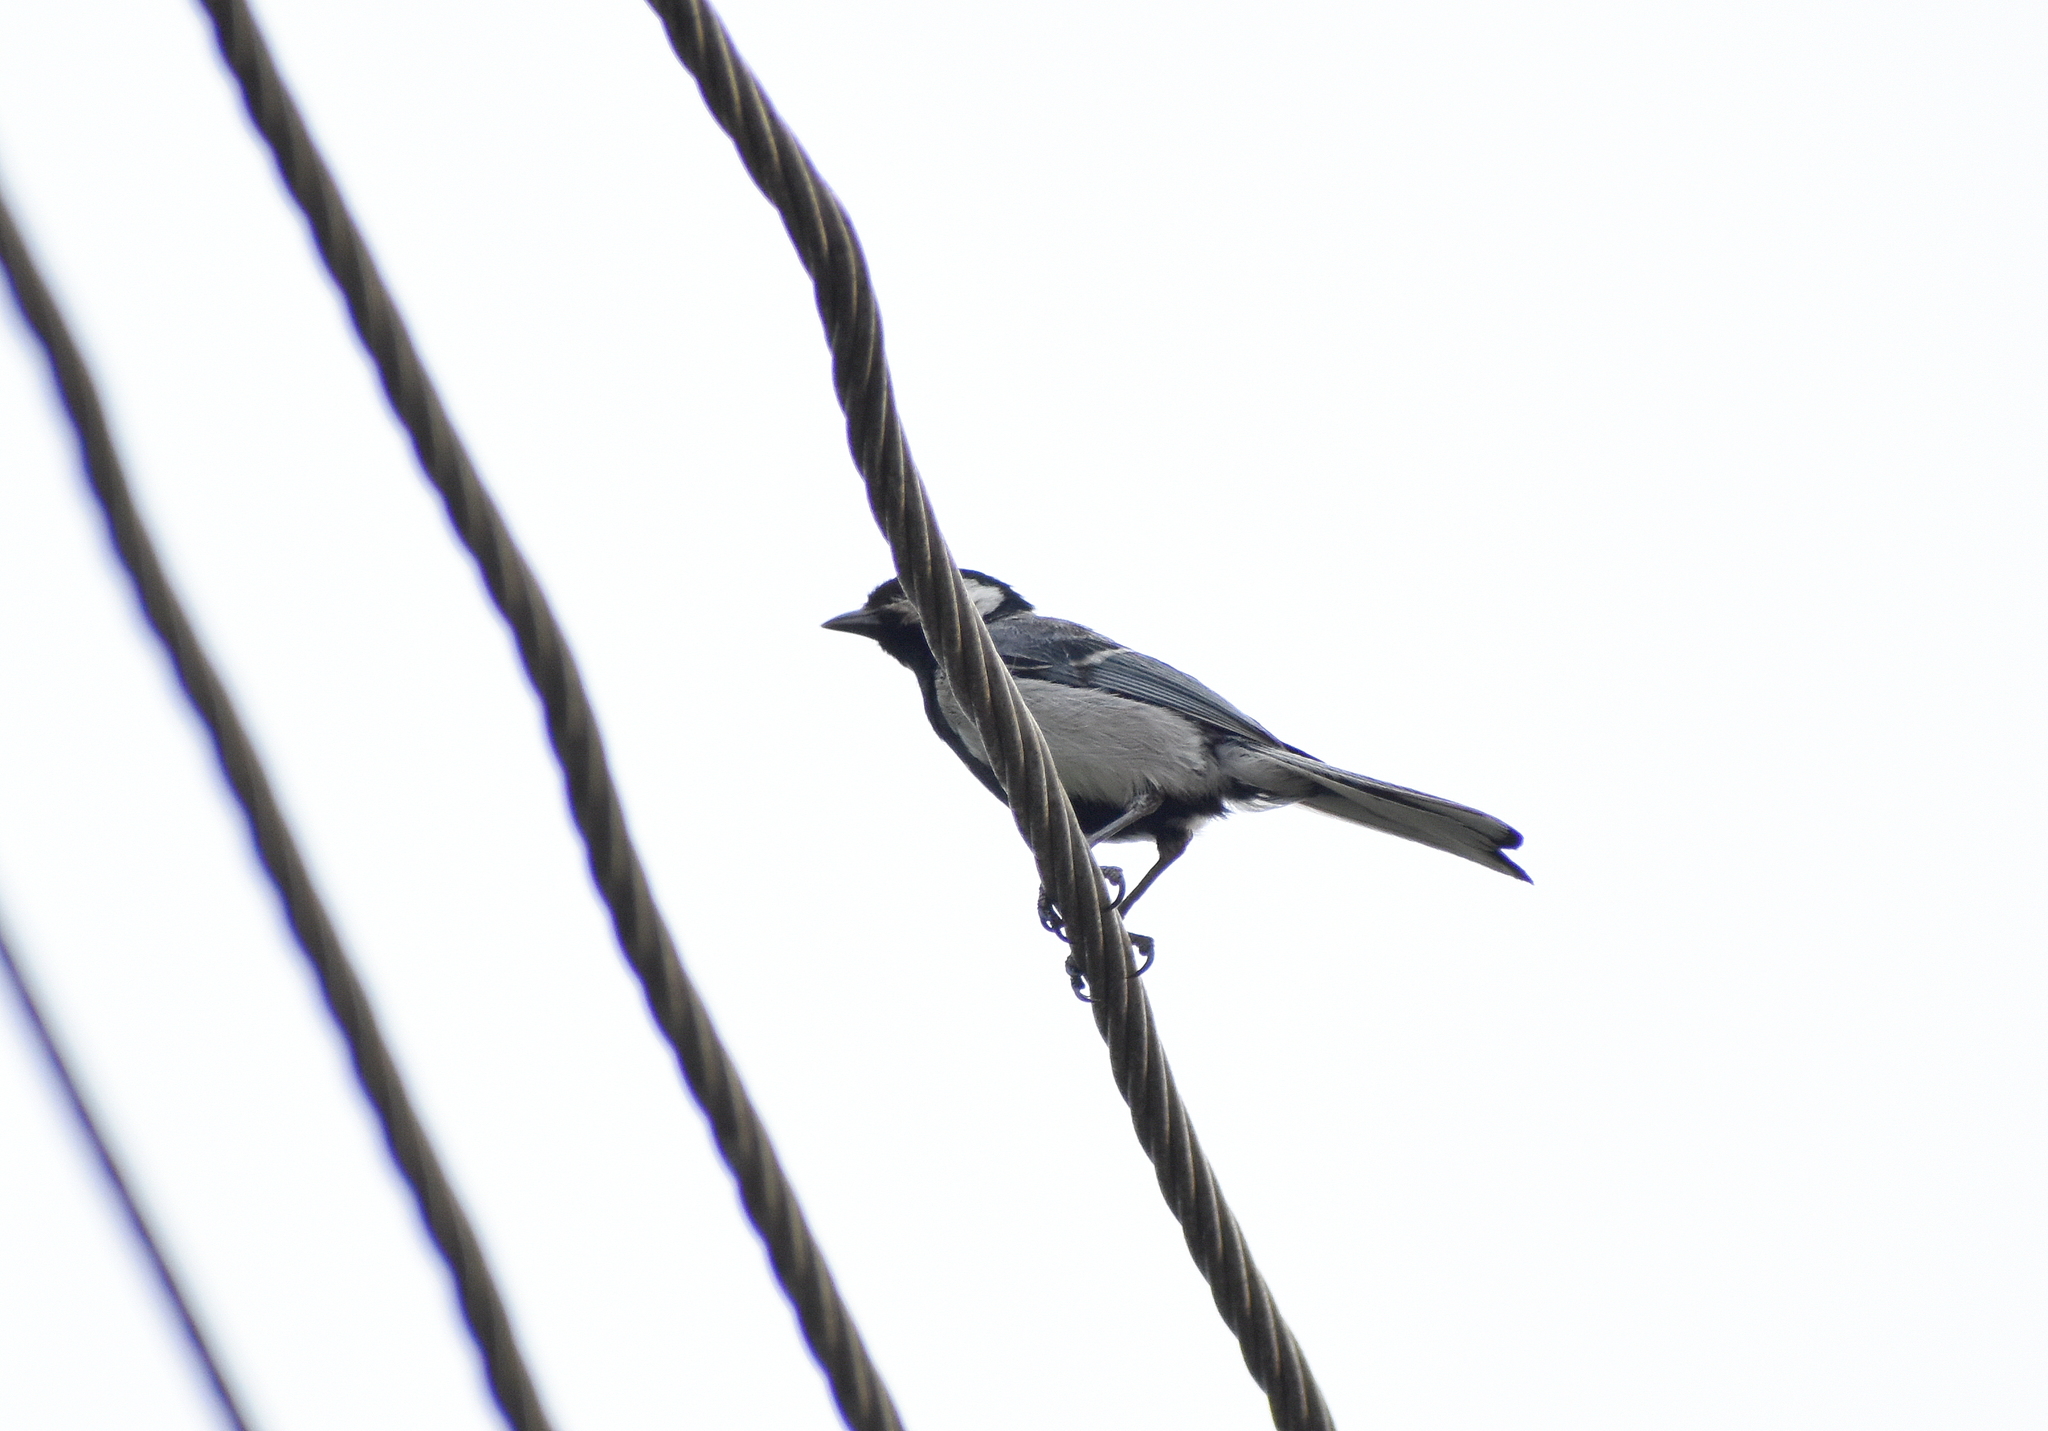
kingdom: Animalia
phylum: Chordata
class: Aves
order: Passeriformes
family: Paridae
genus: Parus
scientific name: Parus cinereus
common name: Cinereous tit
